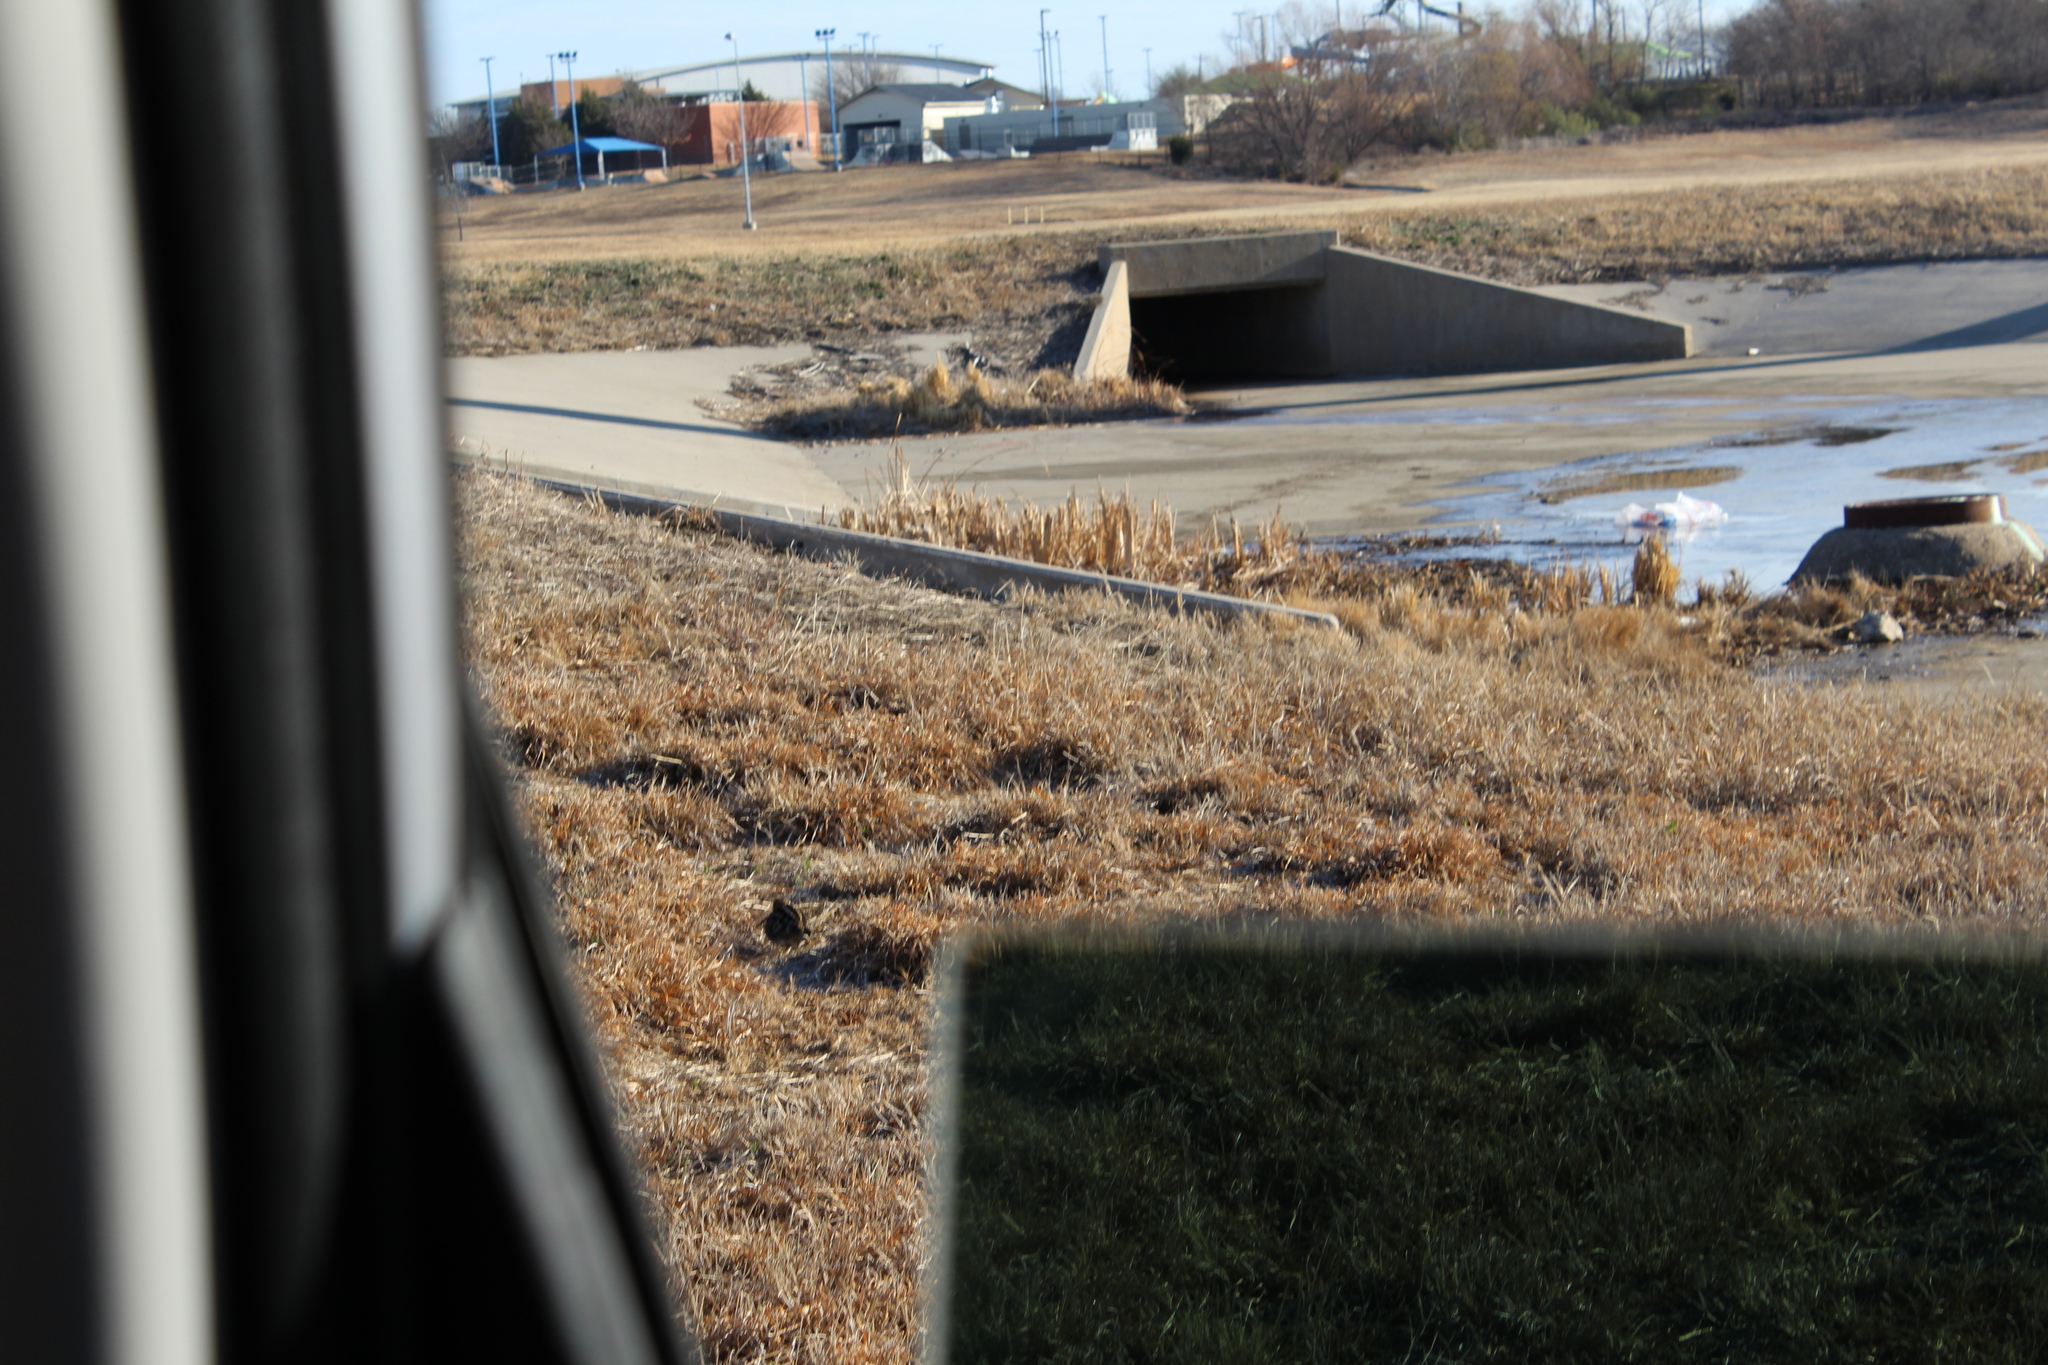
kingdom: Animalia
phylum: Chordata
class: Aves
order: Charadriiformes
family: Scolopacidae
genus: Gallinago
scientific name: Gallinago delicata
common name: Wilson's snipe
